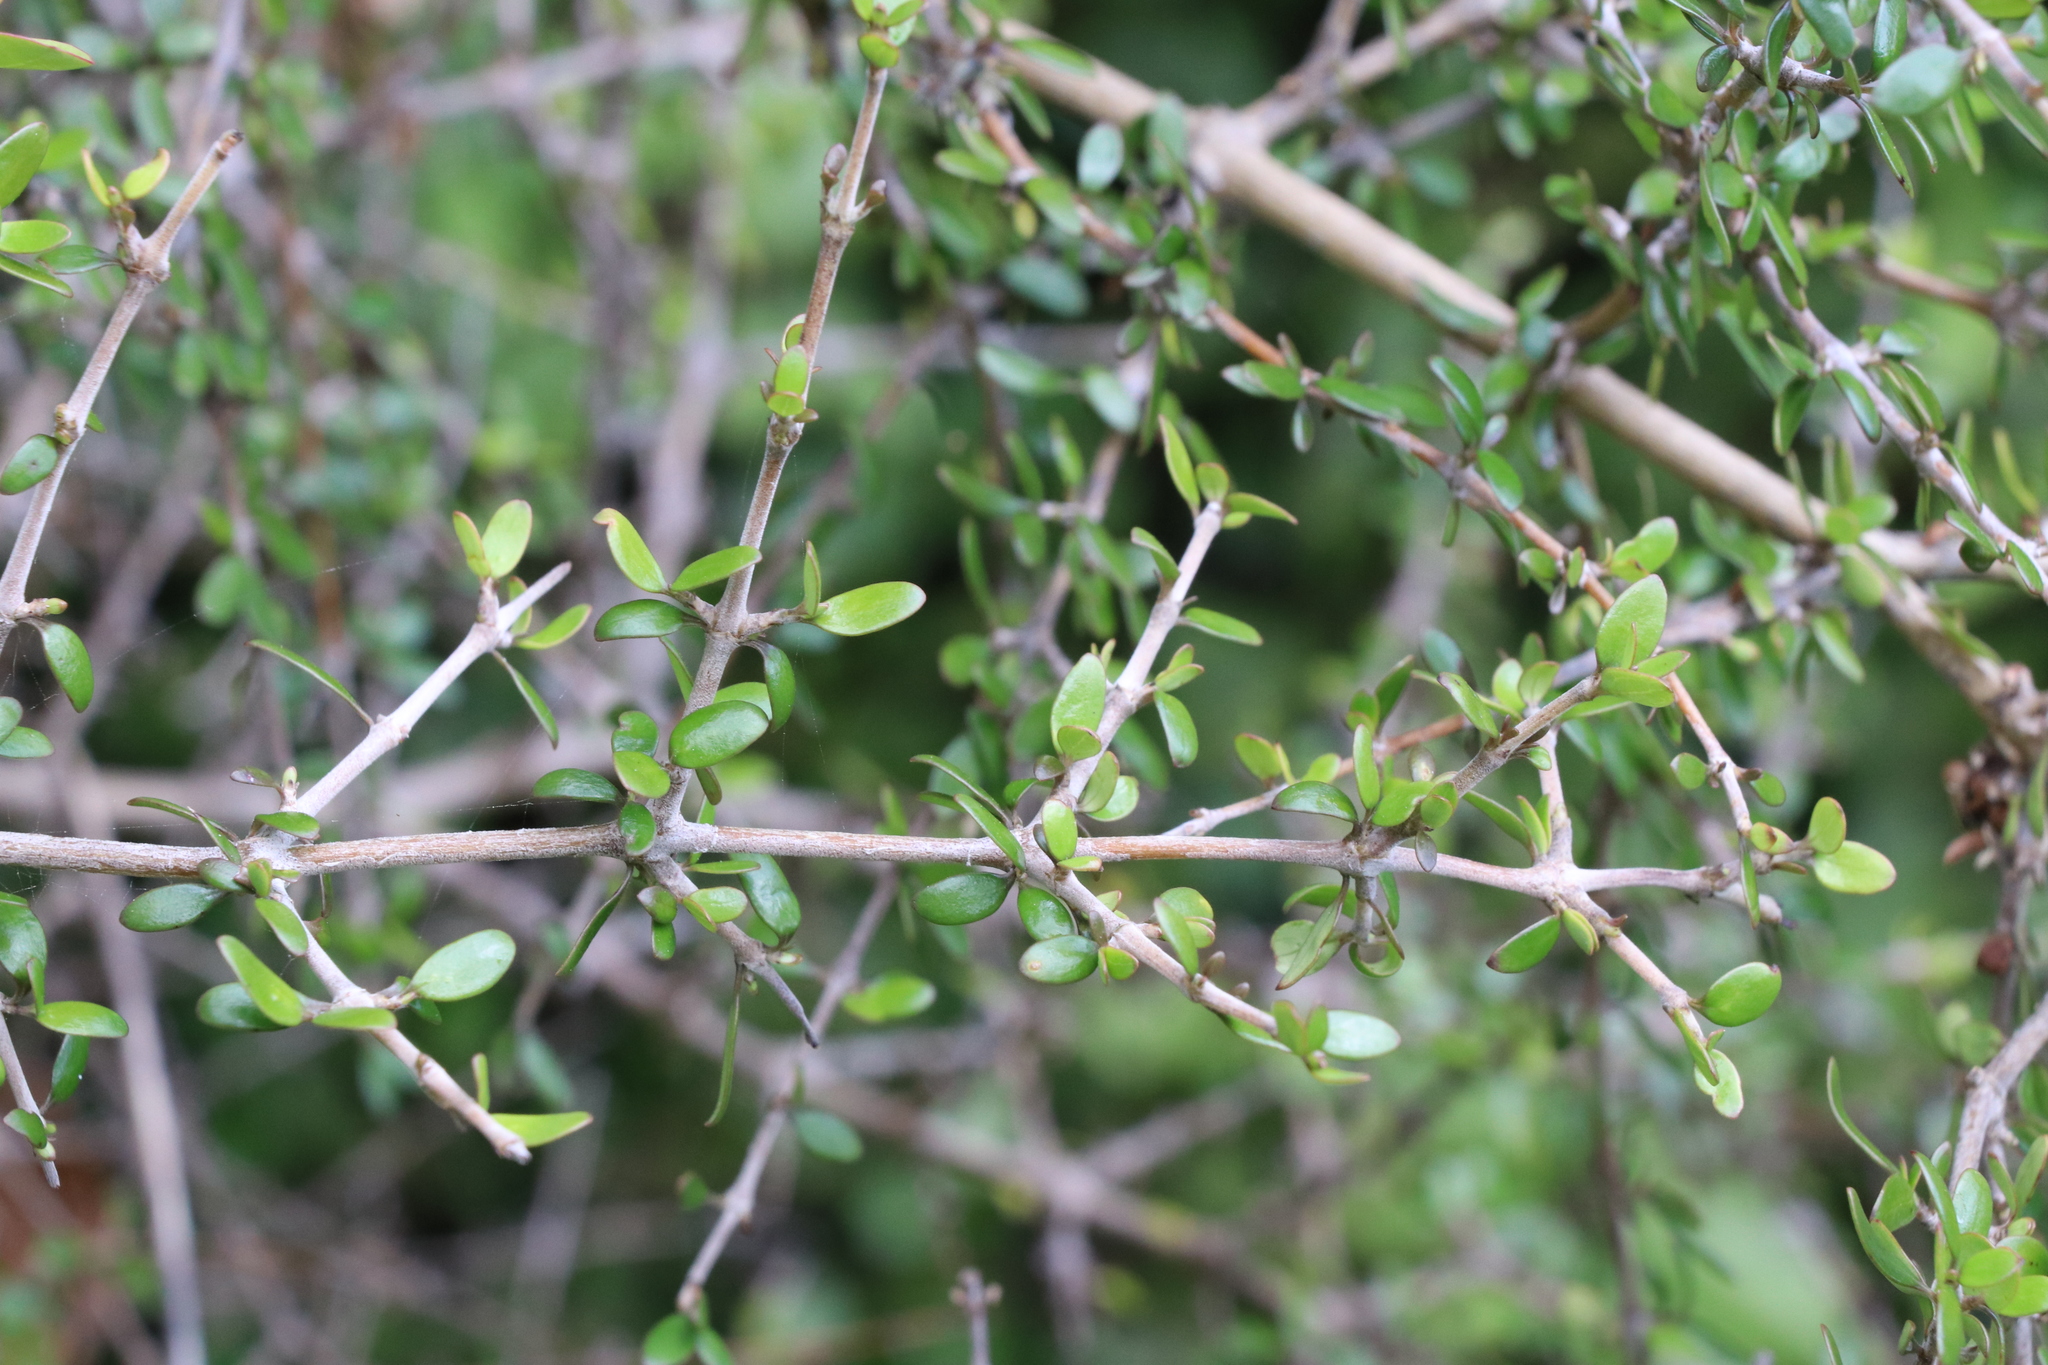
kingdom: Plantae
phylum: Tracheophyta
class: Magnoliopsida
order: Gentianales
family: Rubiaceae
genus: Coprosma
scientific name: Coprosma propinqua
